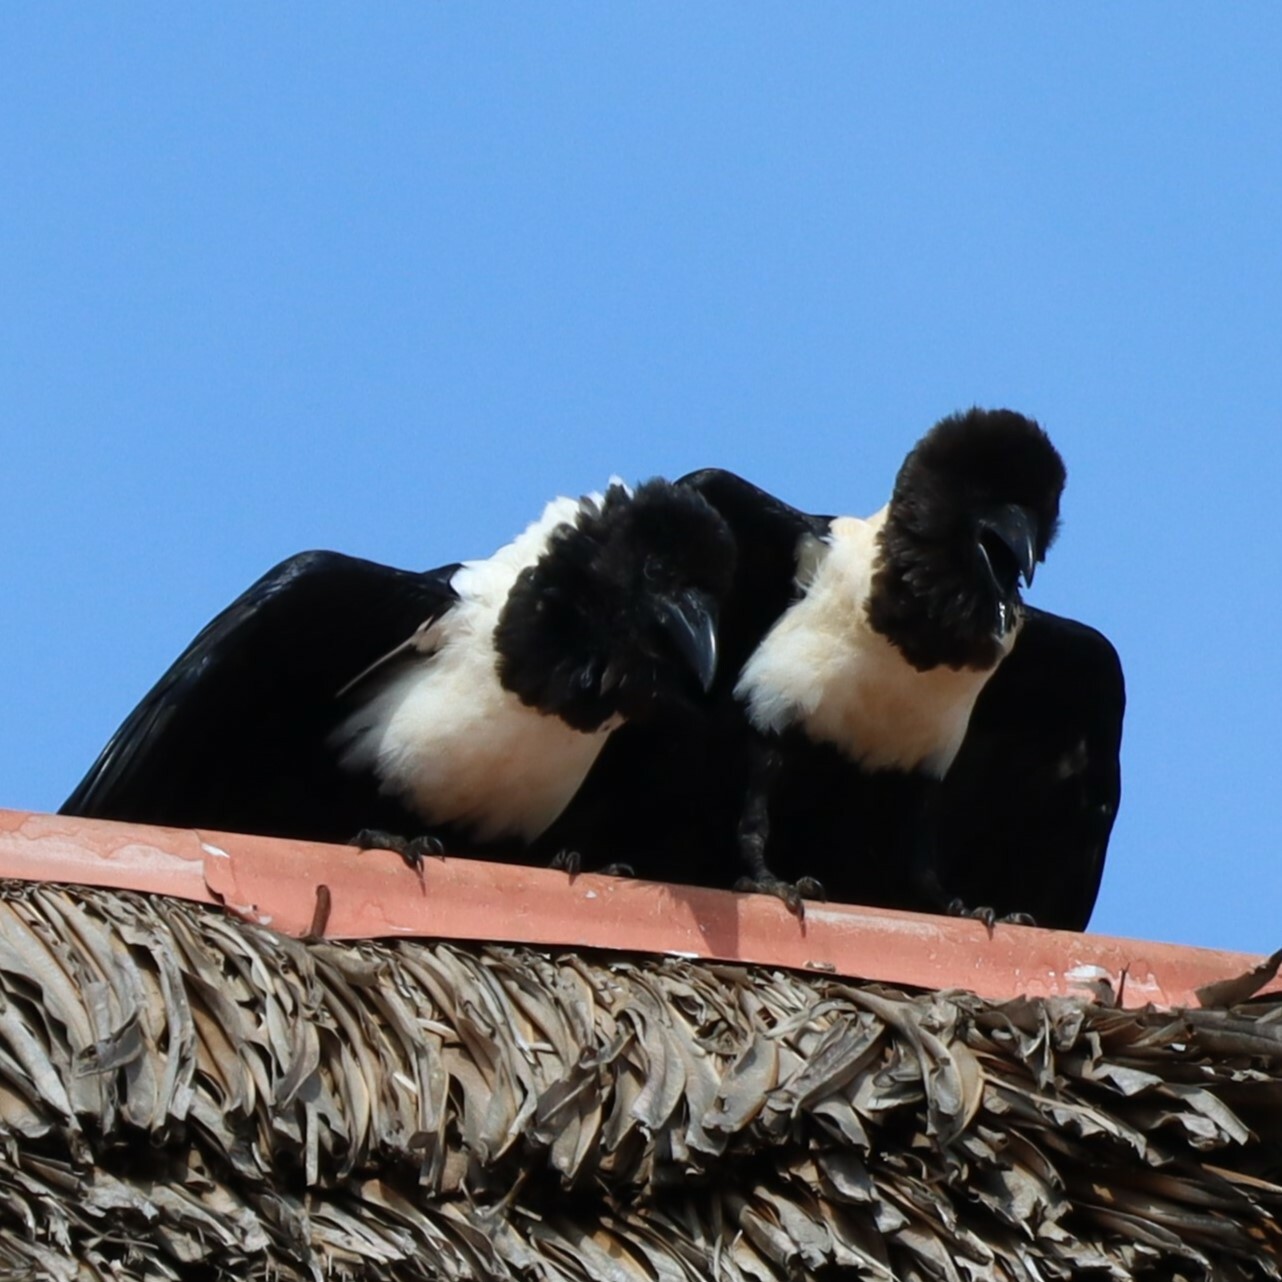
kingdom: Animalia
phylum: Chordata
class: Aves
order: Passeriformes
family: Corvidae
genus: Corvus
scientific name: Corvus albus
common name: Pied crow
